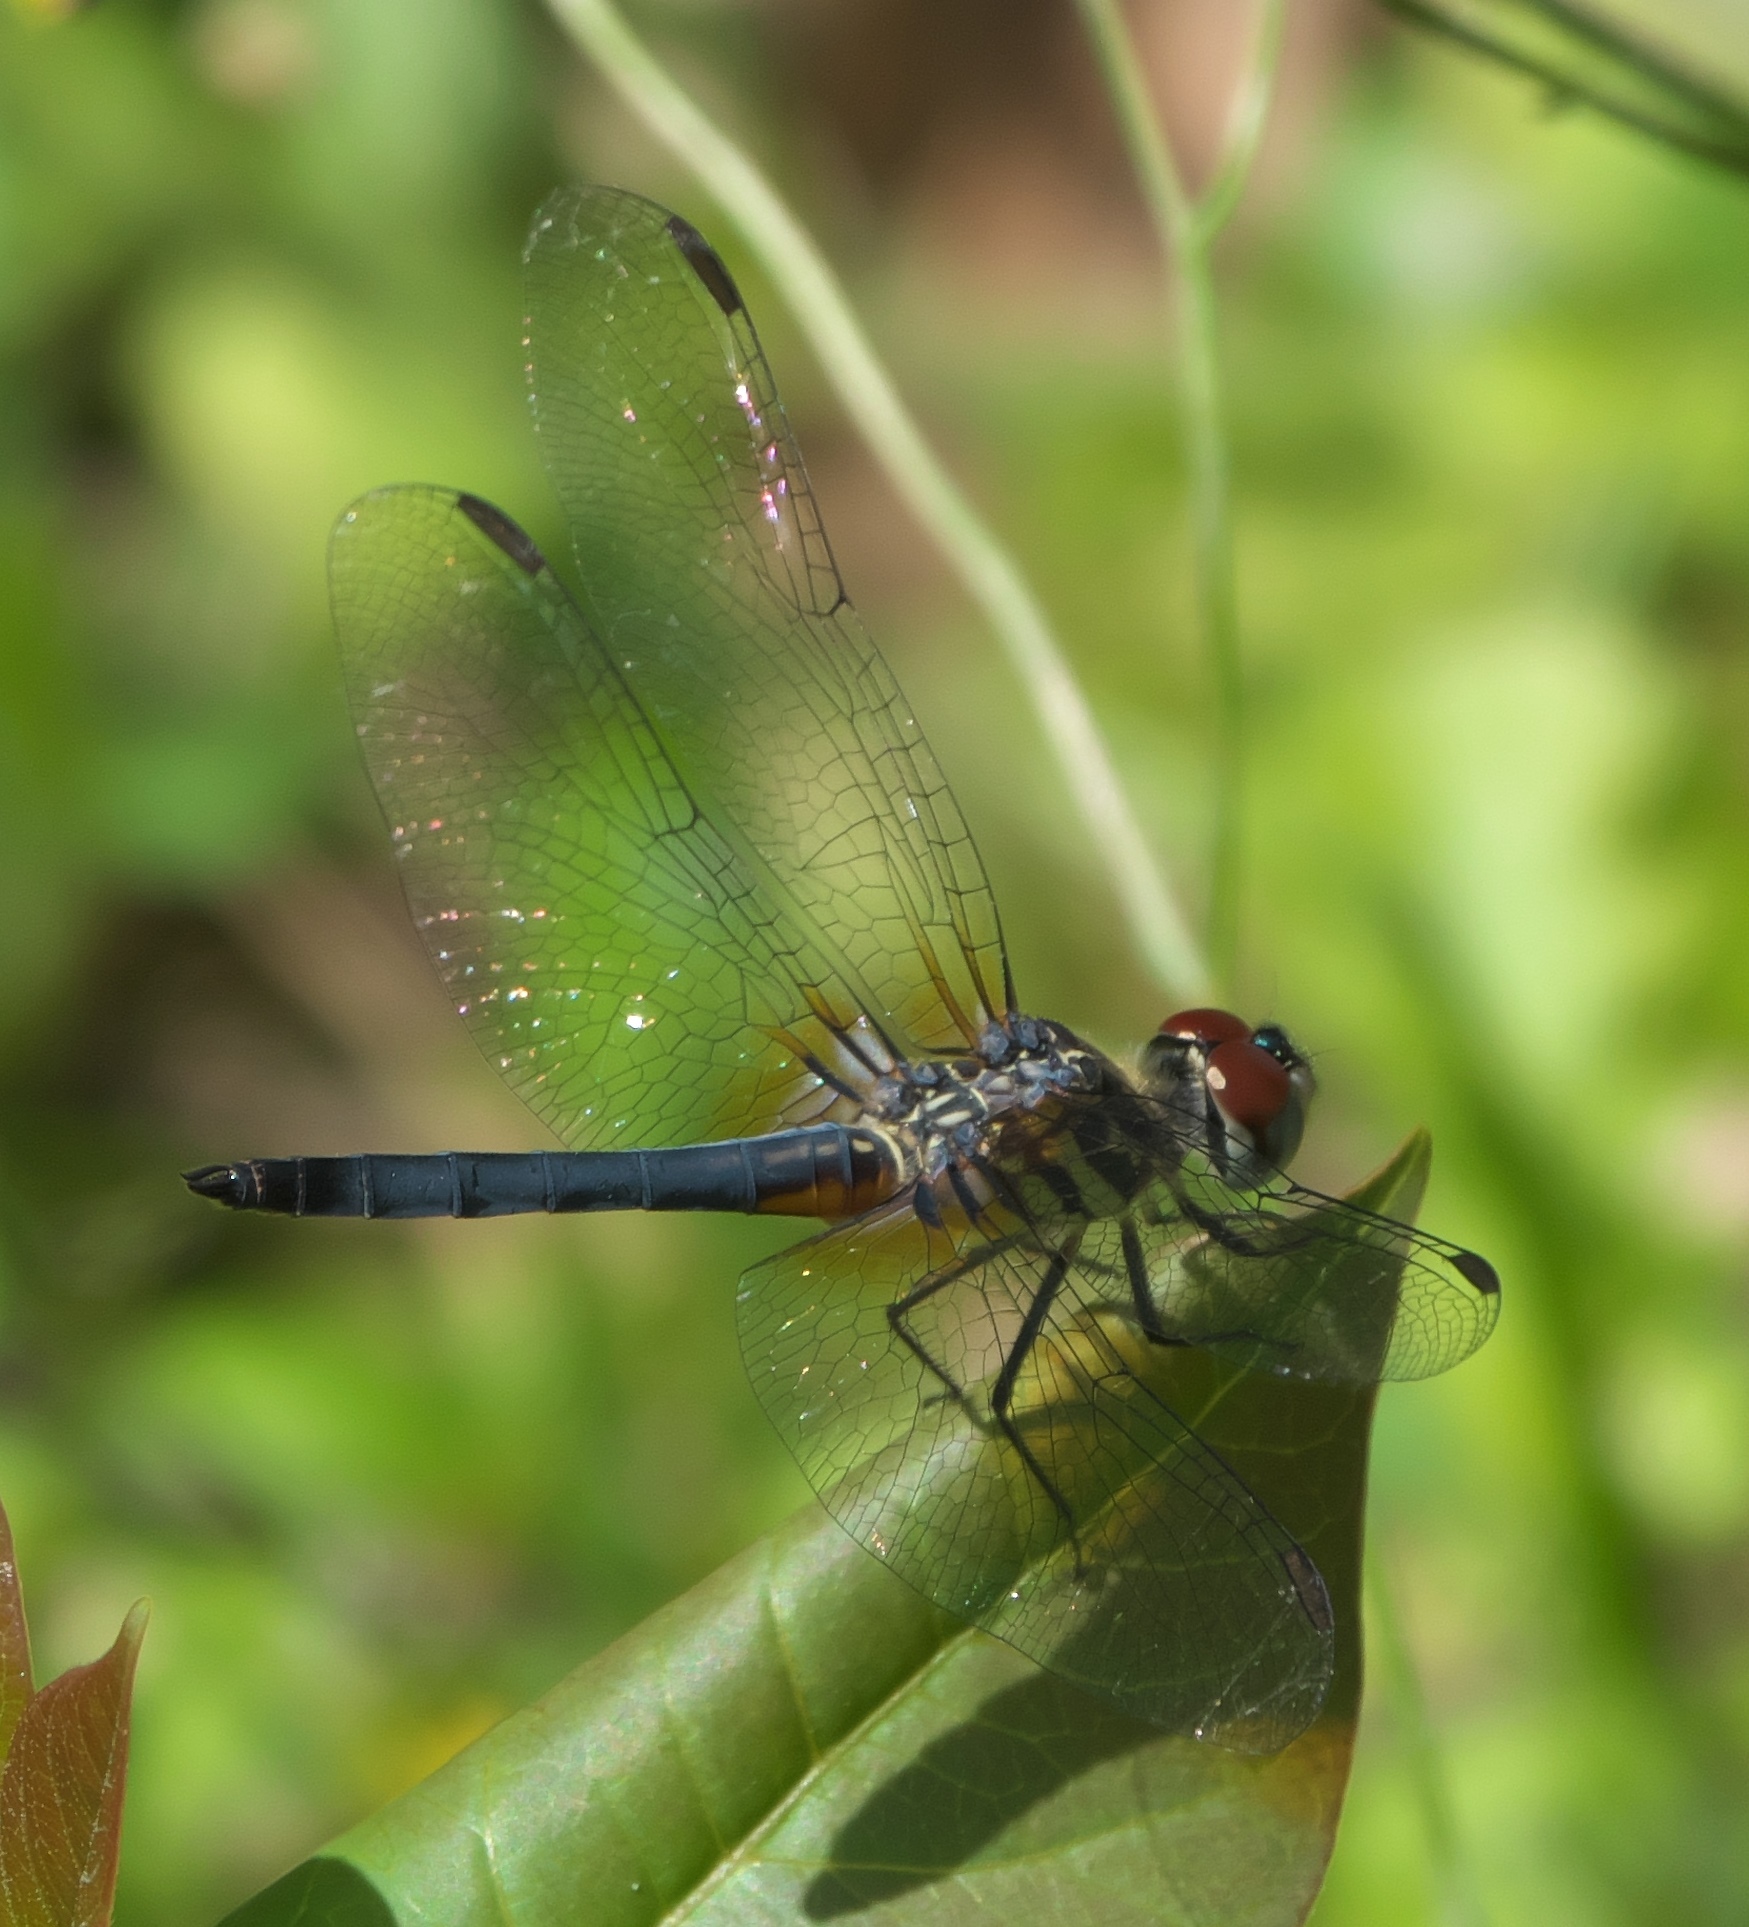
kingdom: Animalia
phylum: Arthropoda
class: Insecta
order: Odonata
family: Libellulidae
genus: Pachydiplax
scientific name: Pachydiplax longipennis
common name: Blue dasher
